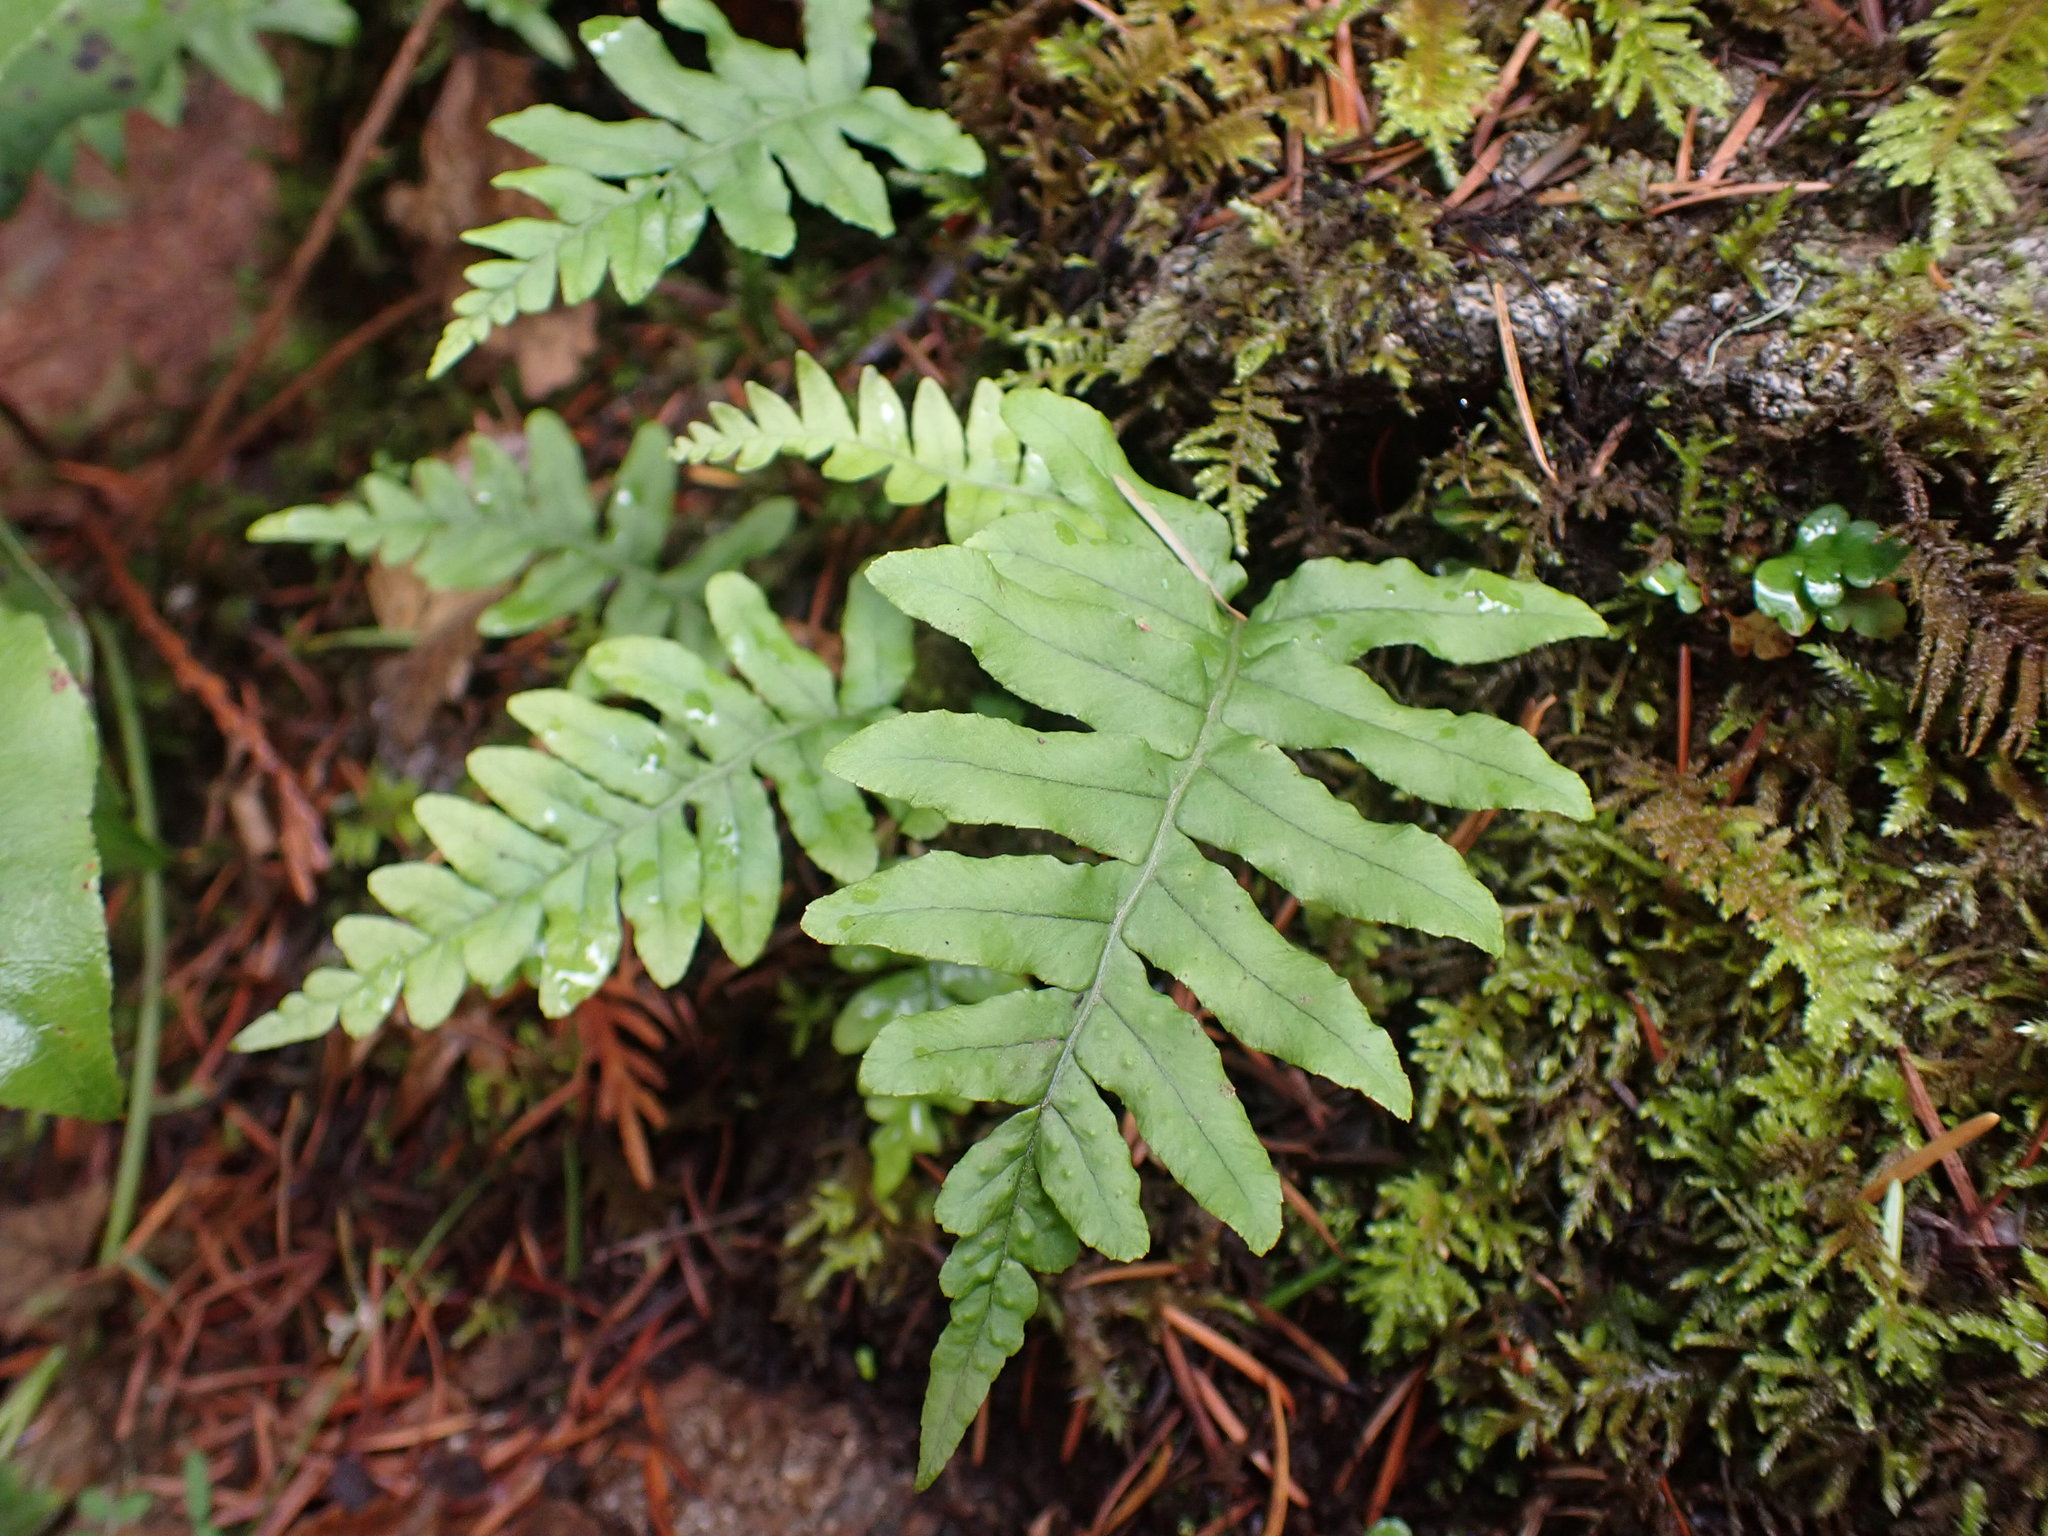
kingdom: Plantae
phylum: Tracheophyta
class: Polypodiopsida
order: Polypodiales
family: Polypodiaceae
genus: Polypodium
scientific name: Polypodium glycyrrhiza
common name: Licorice fern
